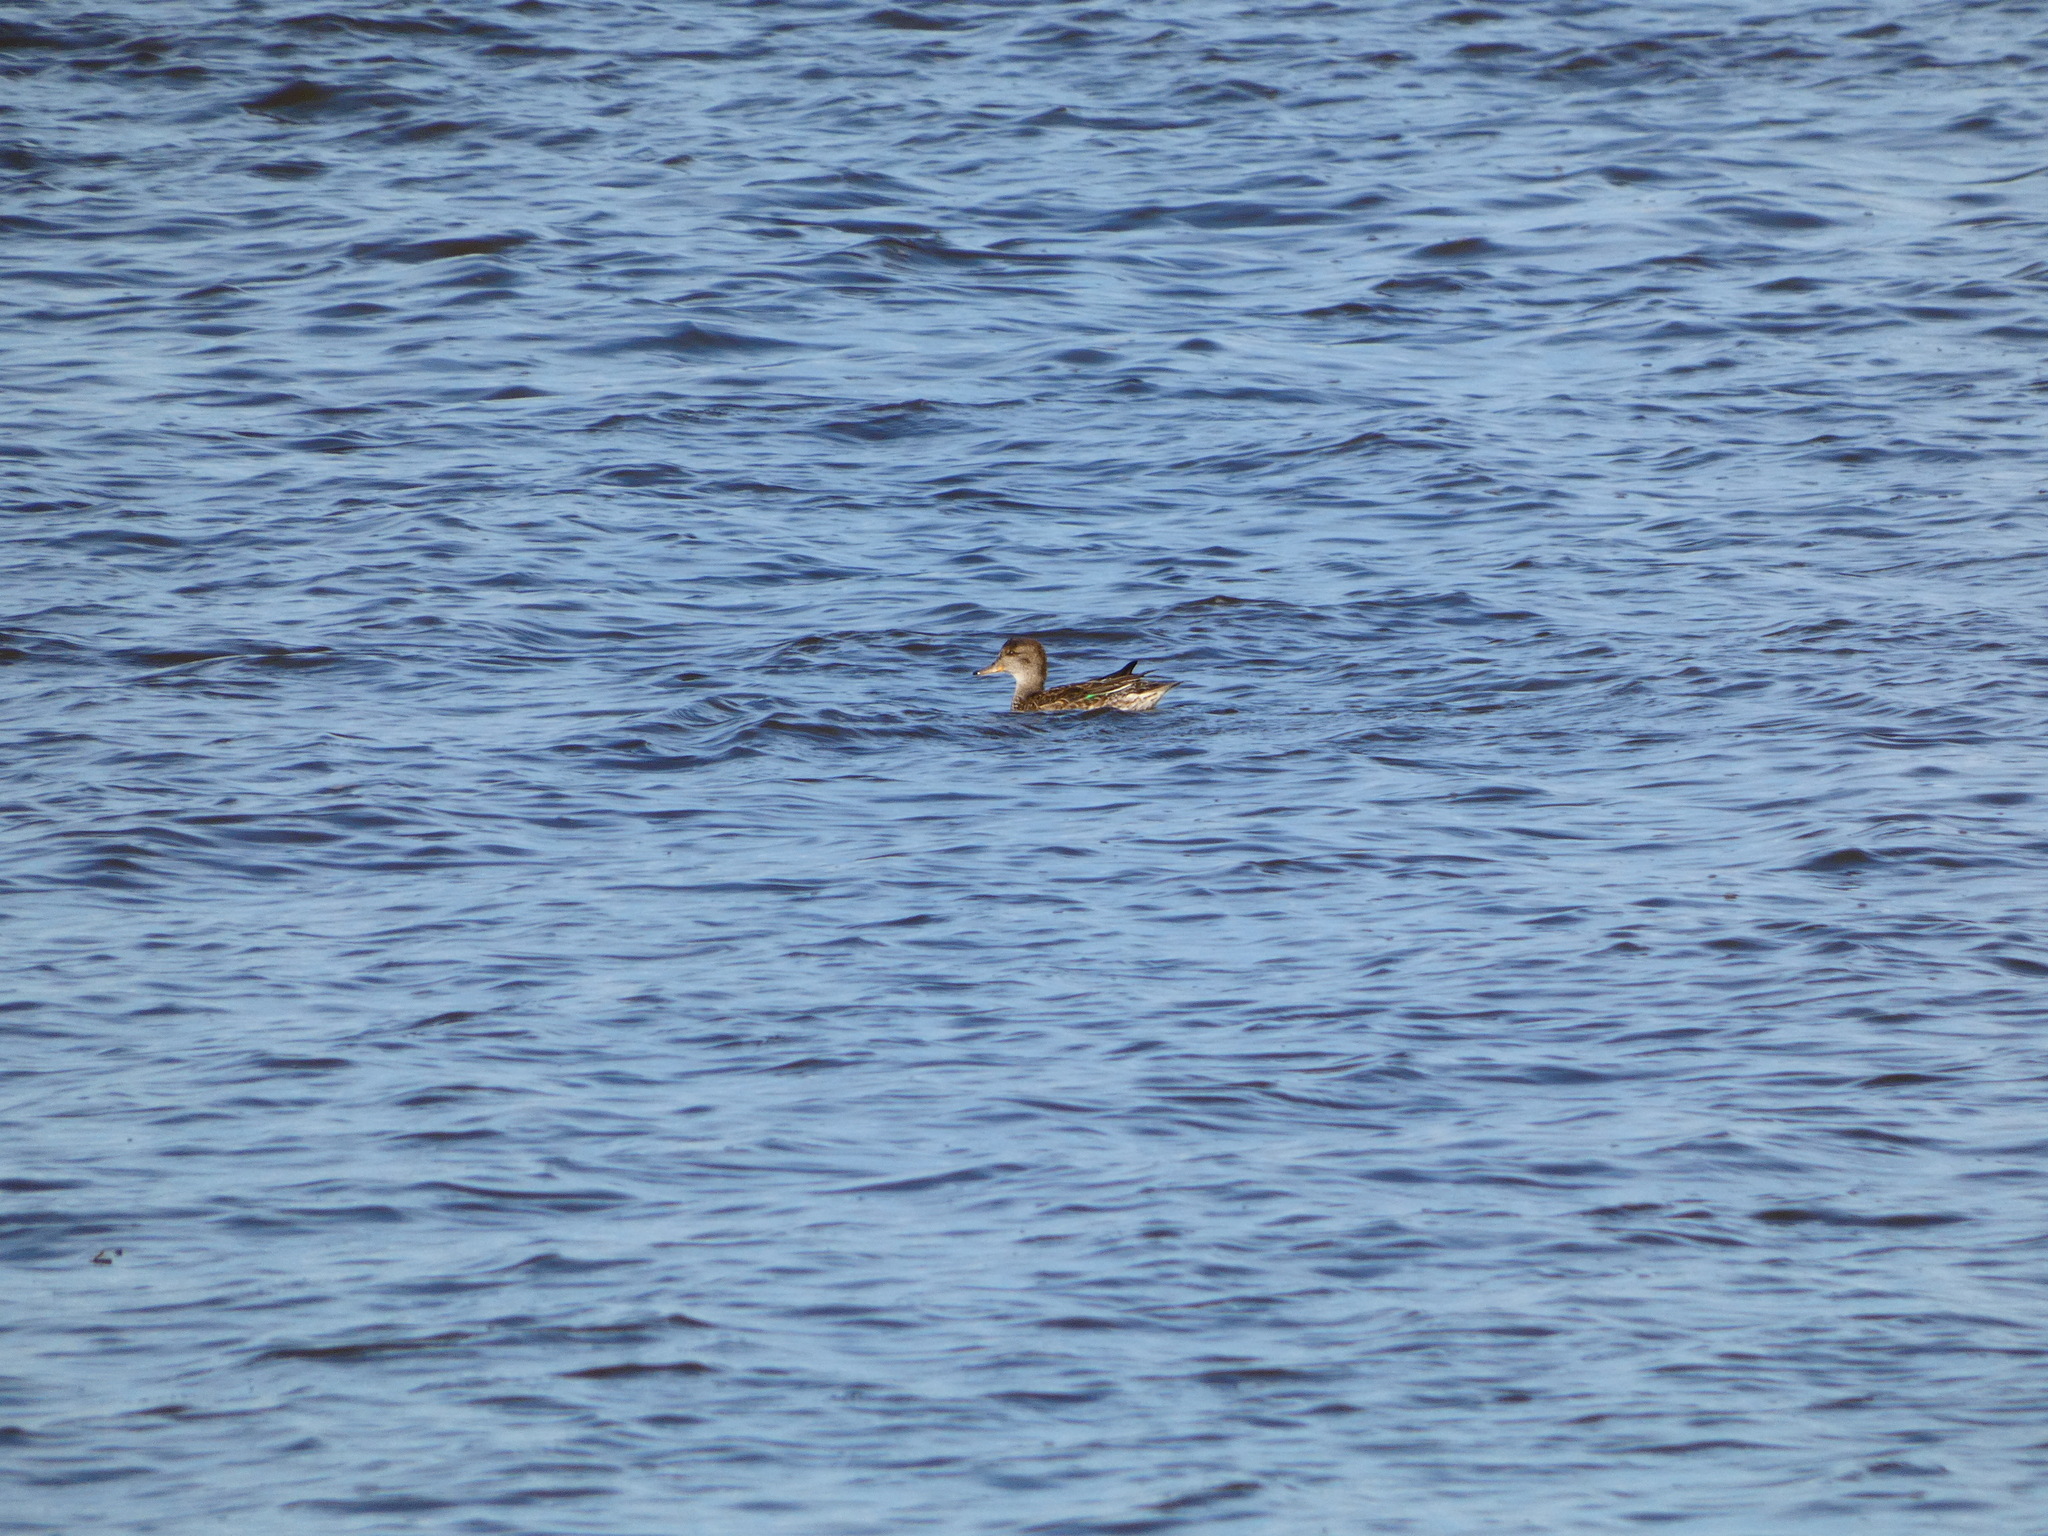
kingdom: Animalia
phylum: Chordata
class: Aves
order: Anseriformes
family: Anatidae
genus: Anas
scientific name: Anas crecca
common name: Eurasian teal
